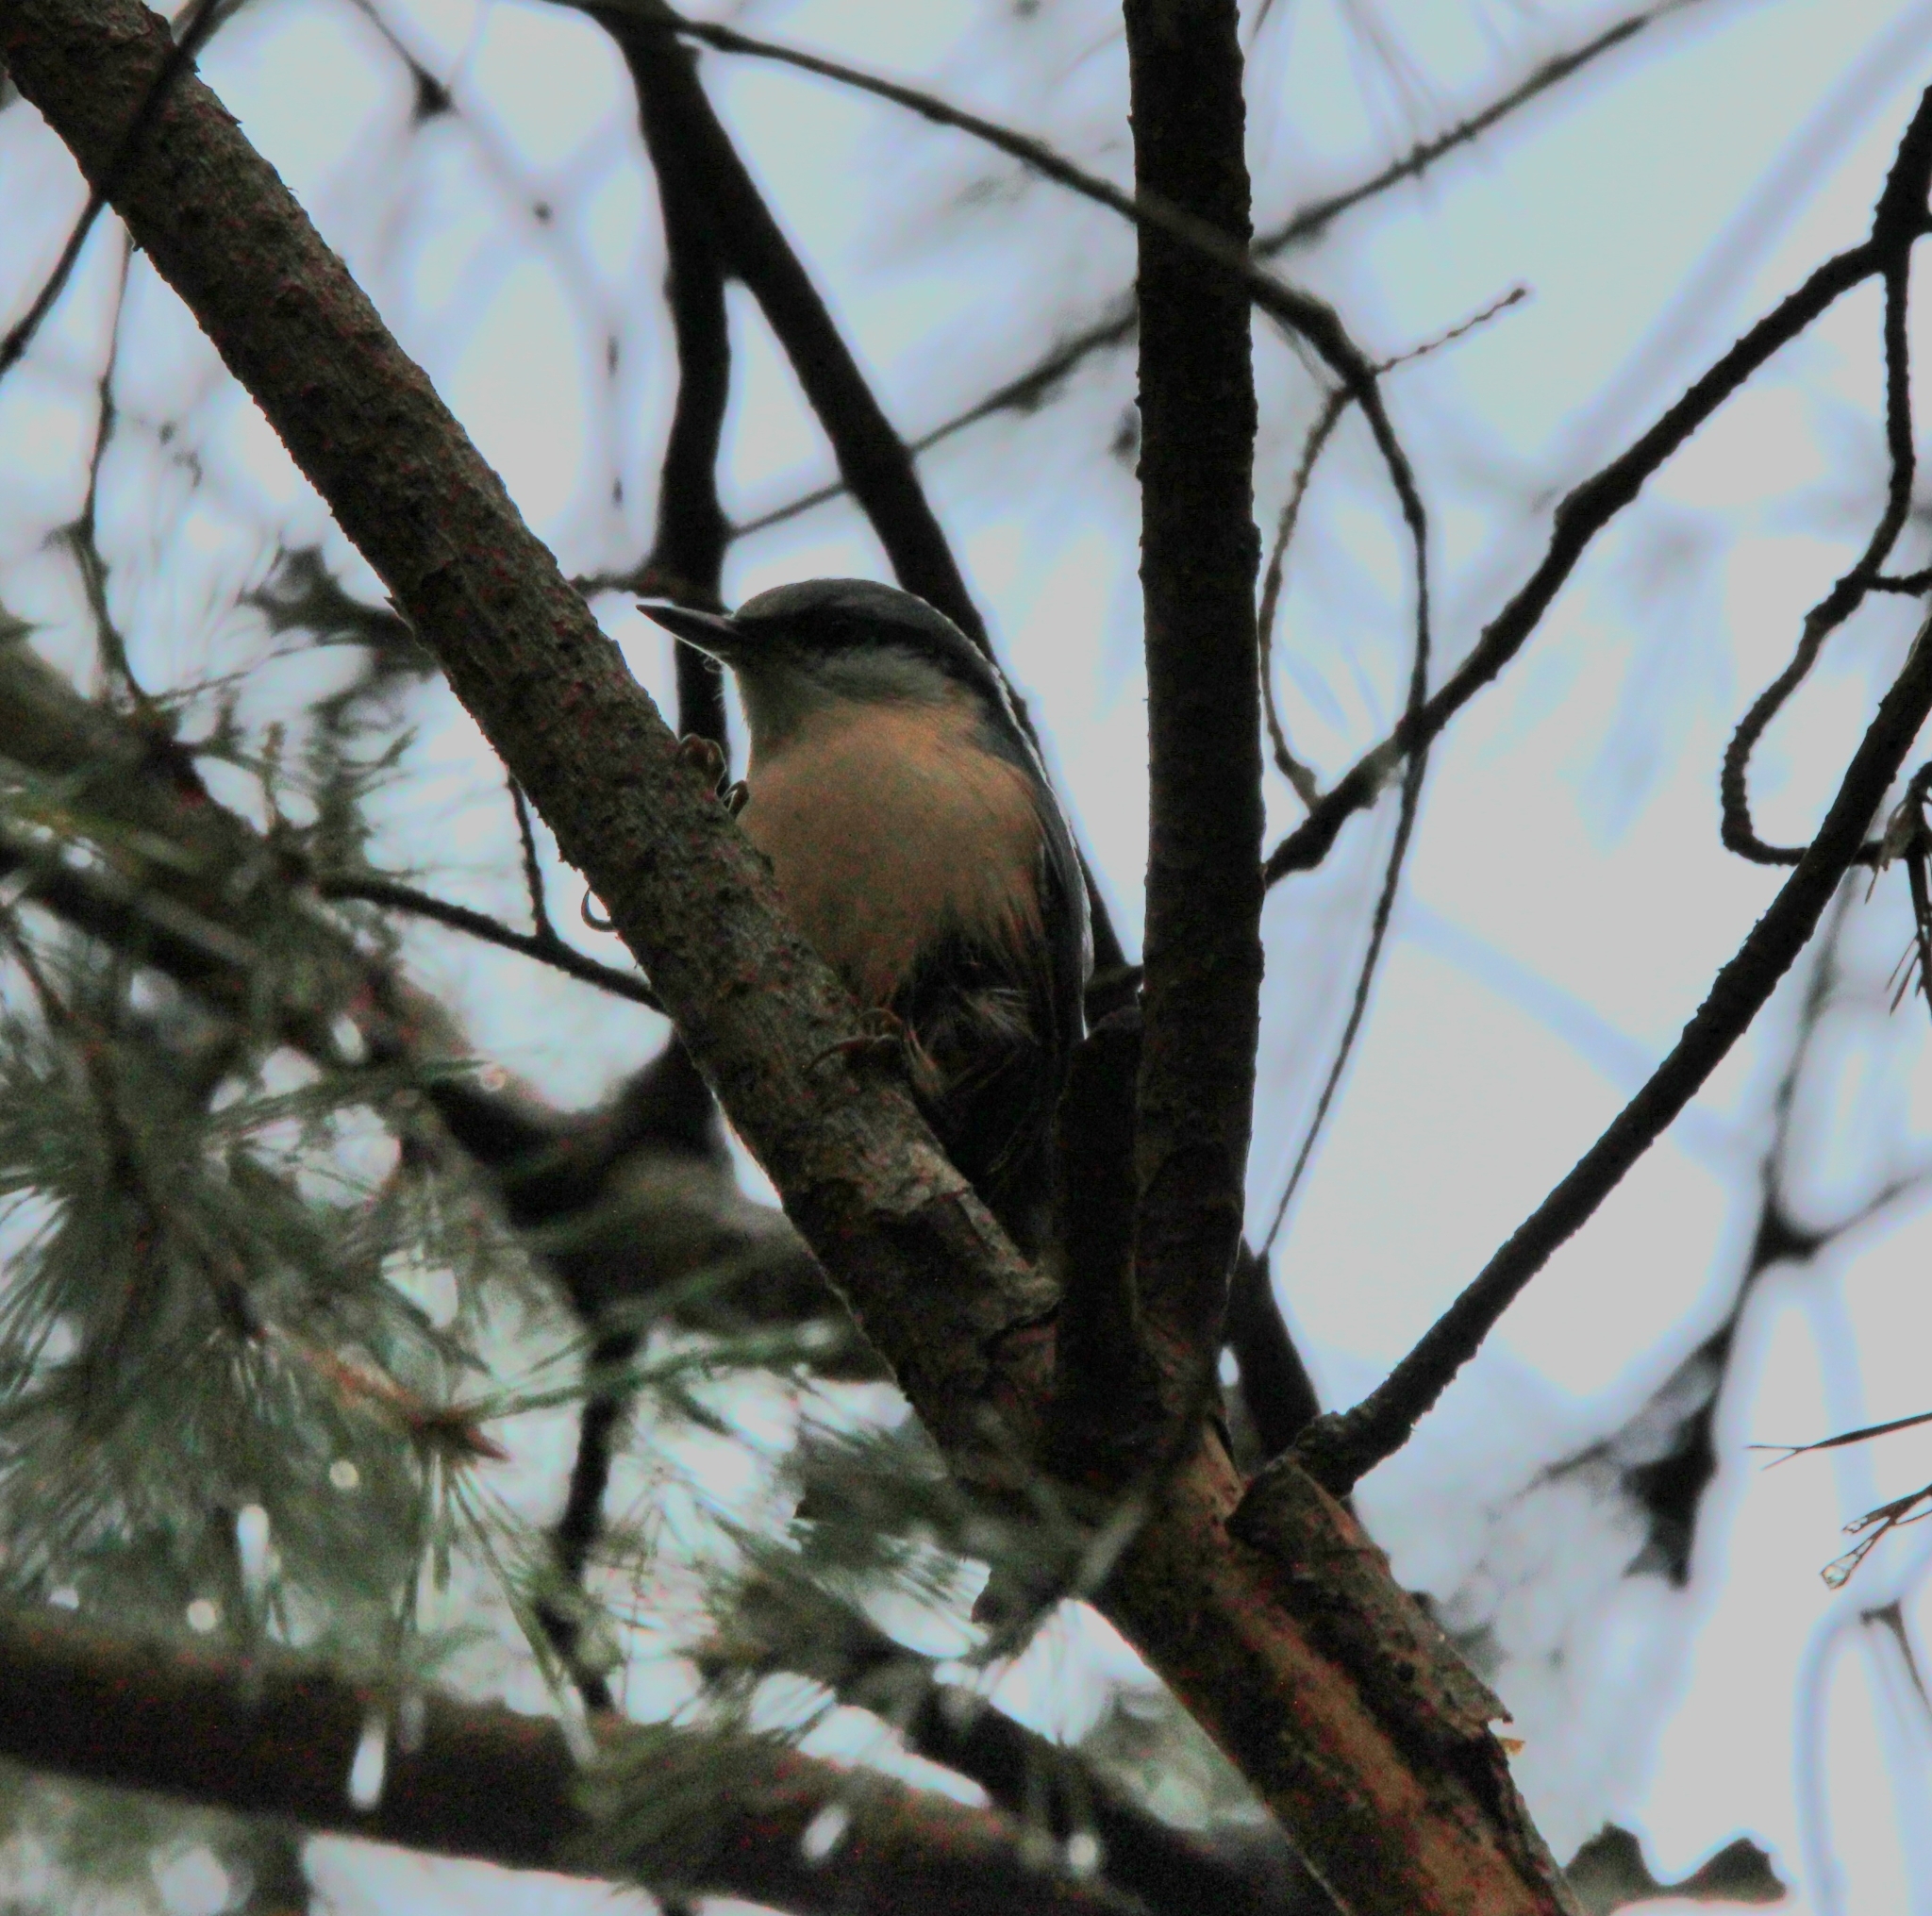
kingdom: Animalia
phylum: Chordata
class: Aves
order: Passeriformes
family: Sittidae
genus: Sitta
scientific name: Sitta europaea
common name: Eurasian nuthatch
